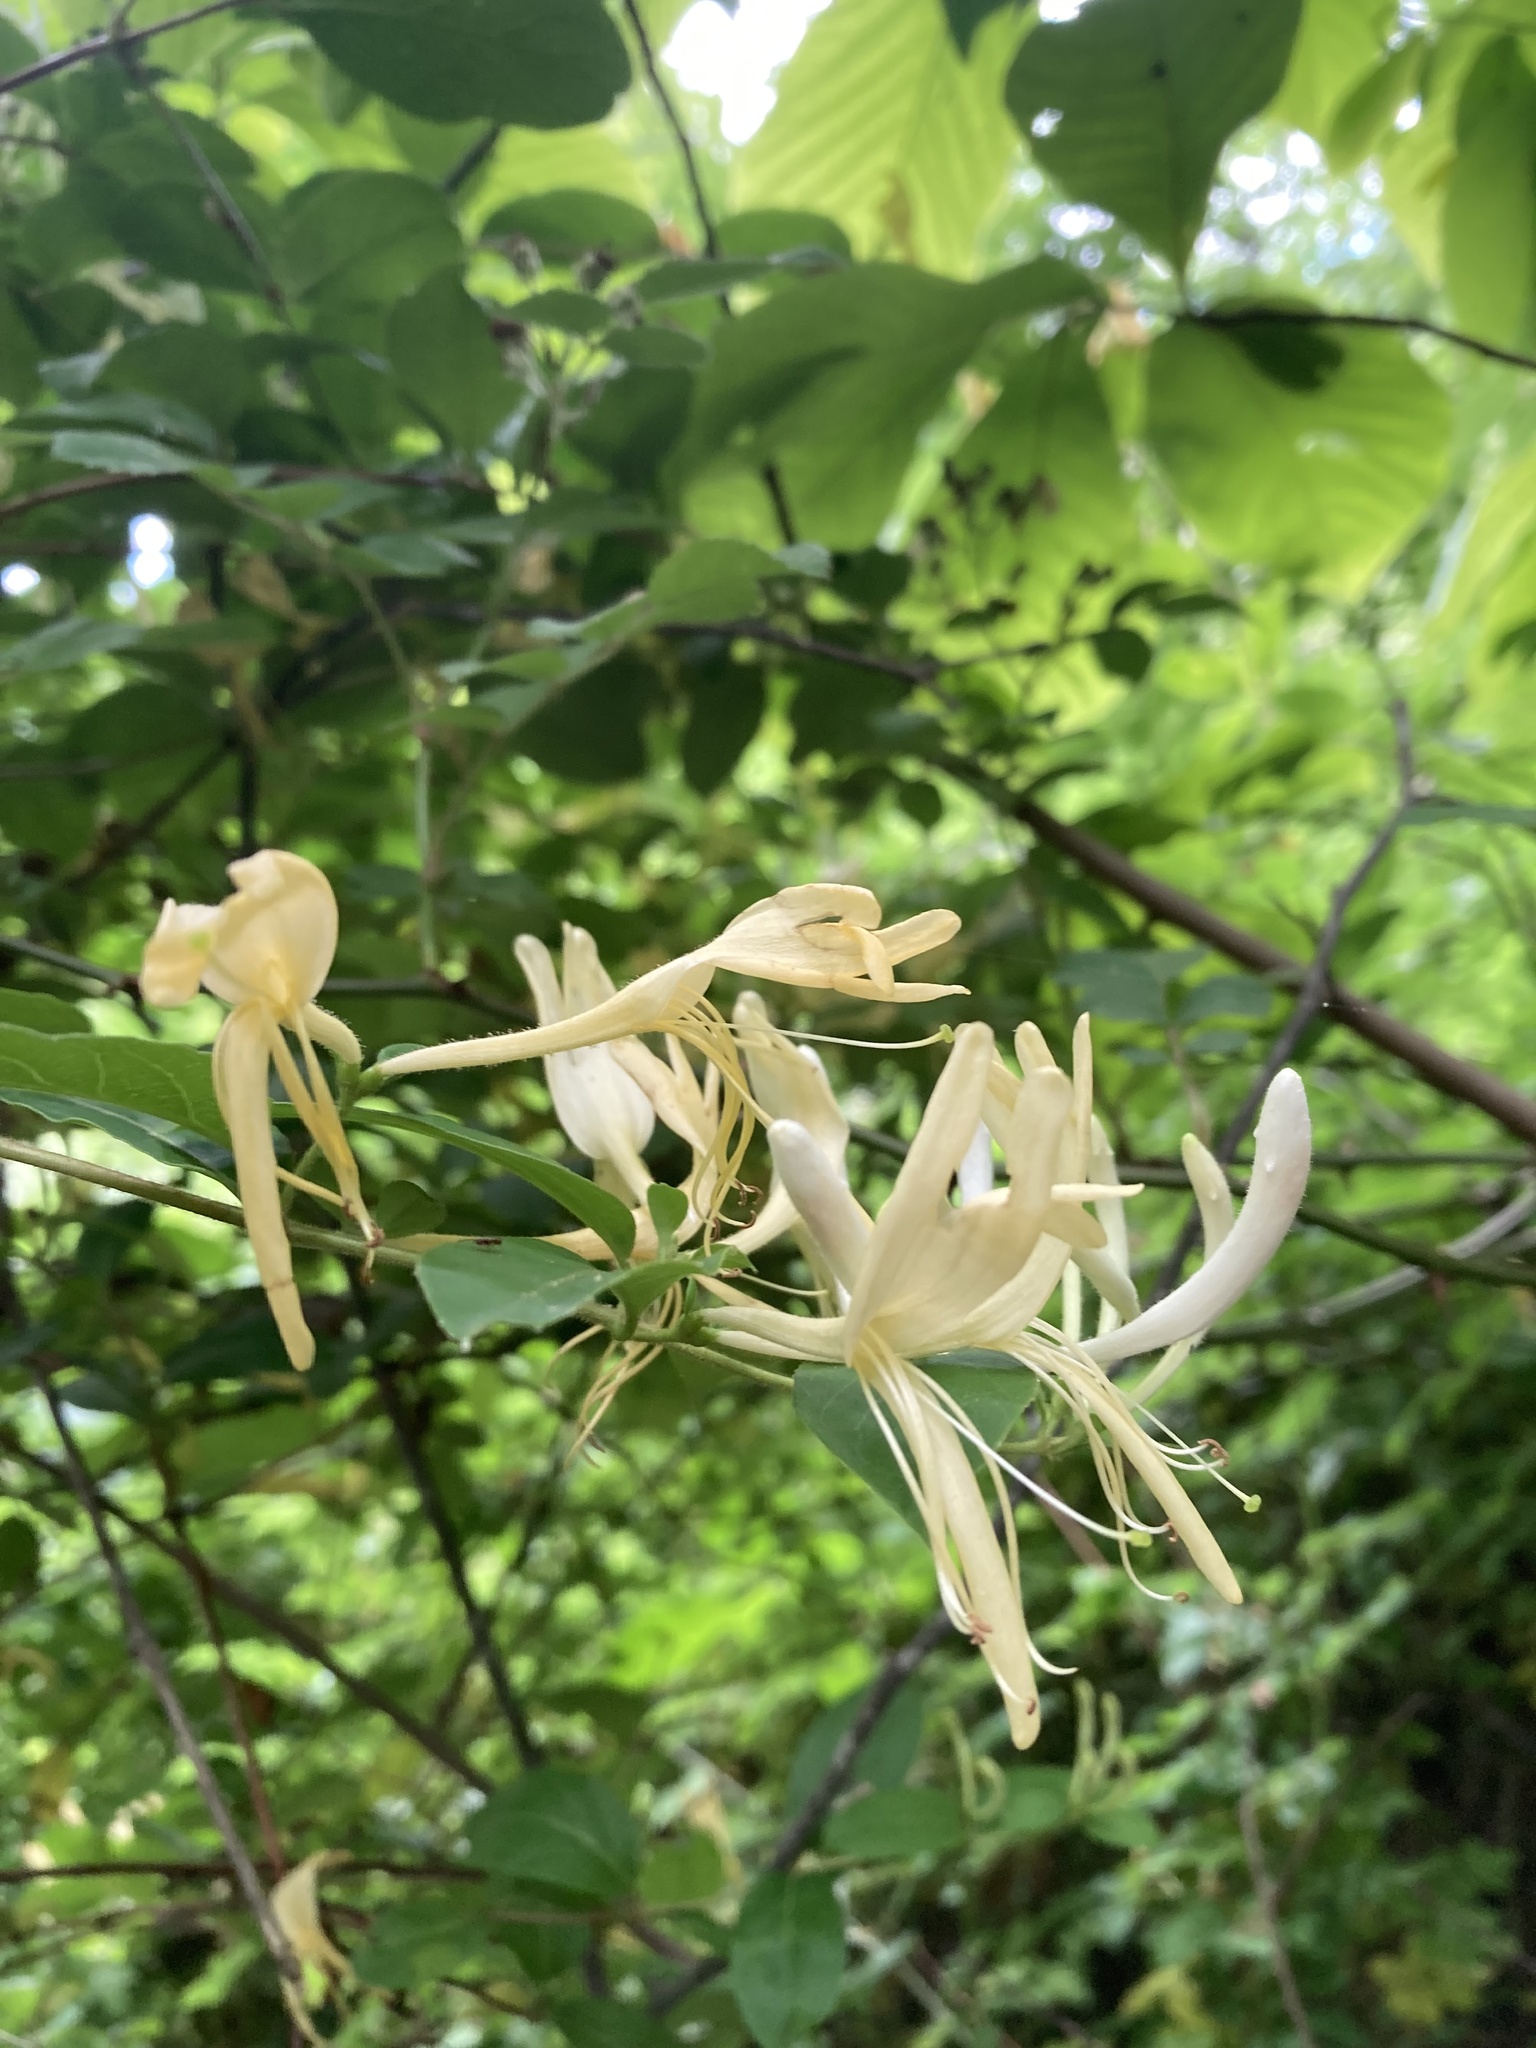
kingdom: Plantae
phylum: Tracheophyta
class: Magnoliopsida
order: Dipsacales
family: Caprifoliaceae
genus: Lonicera
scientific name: Lonicera japonica
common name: Japanese honeysuckle
